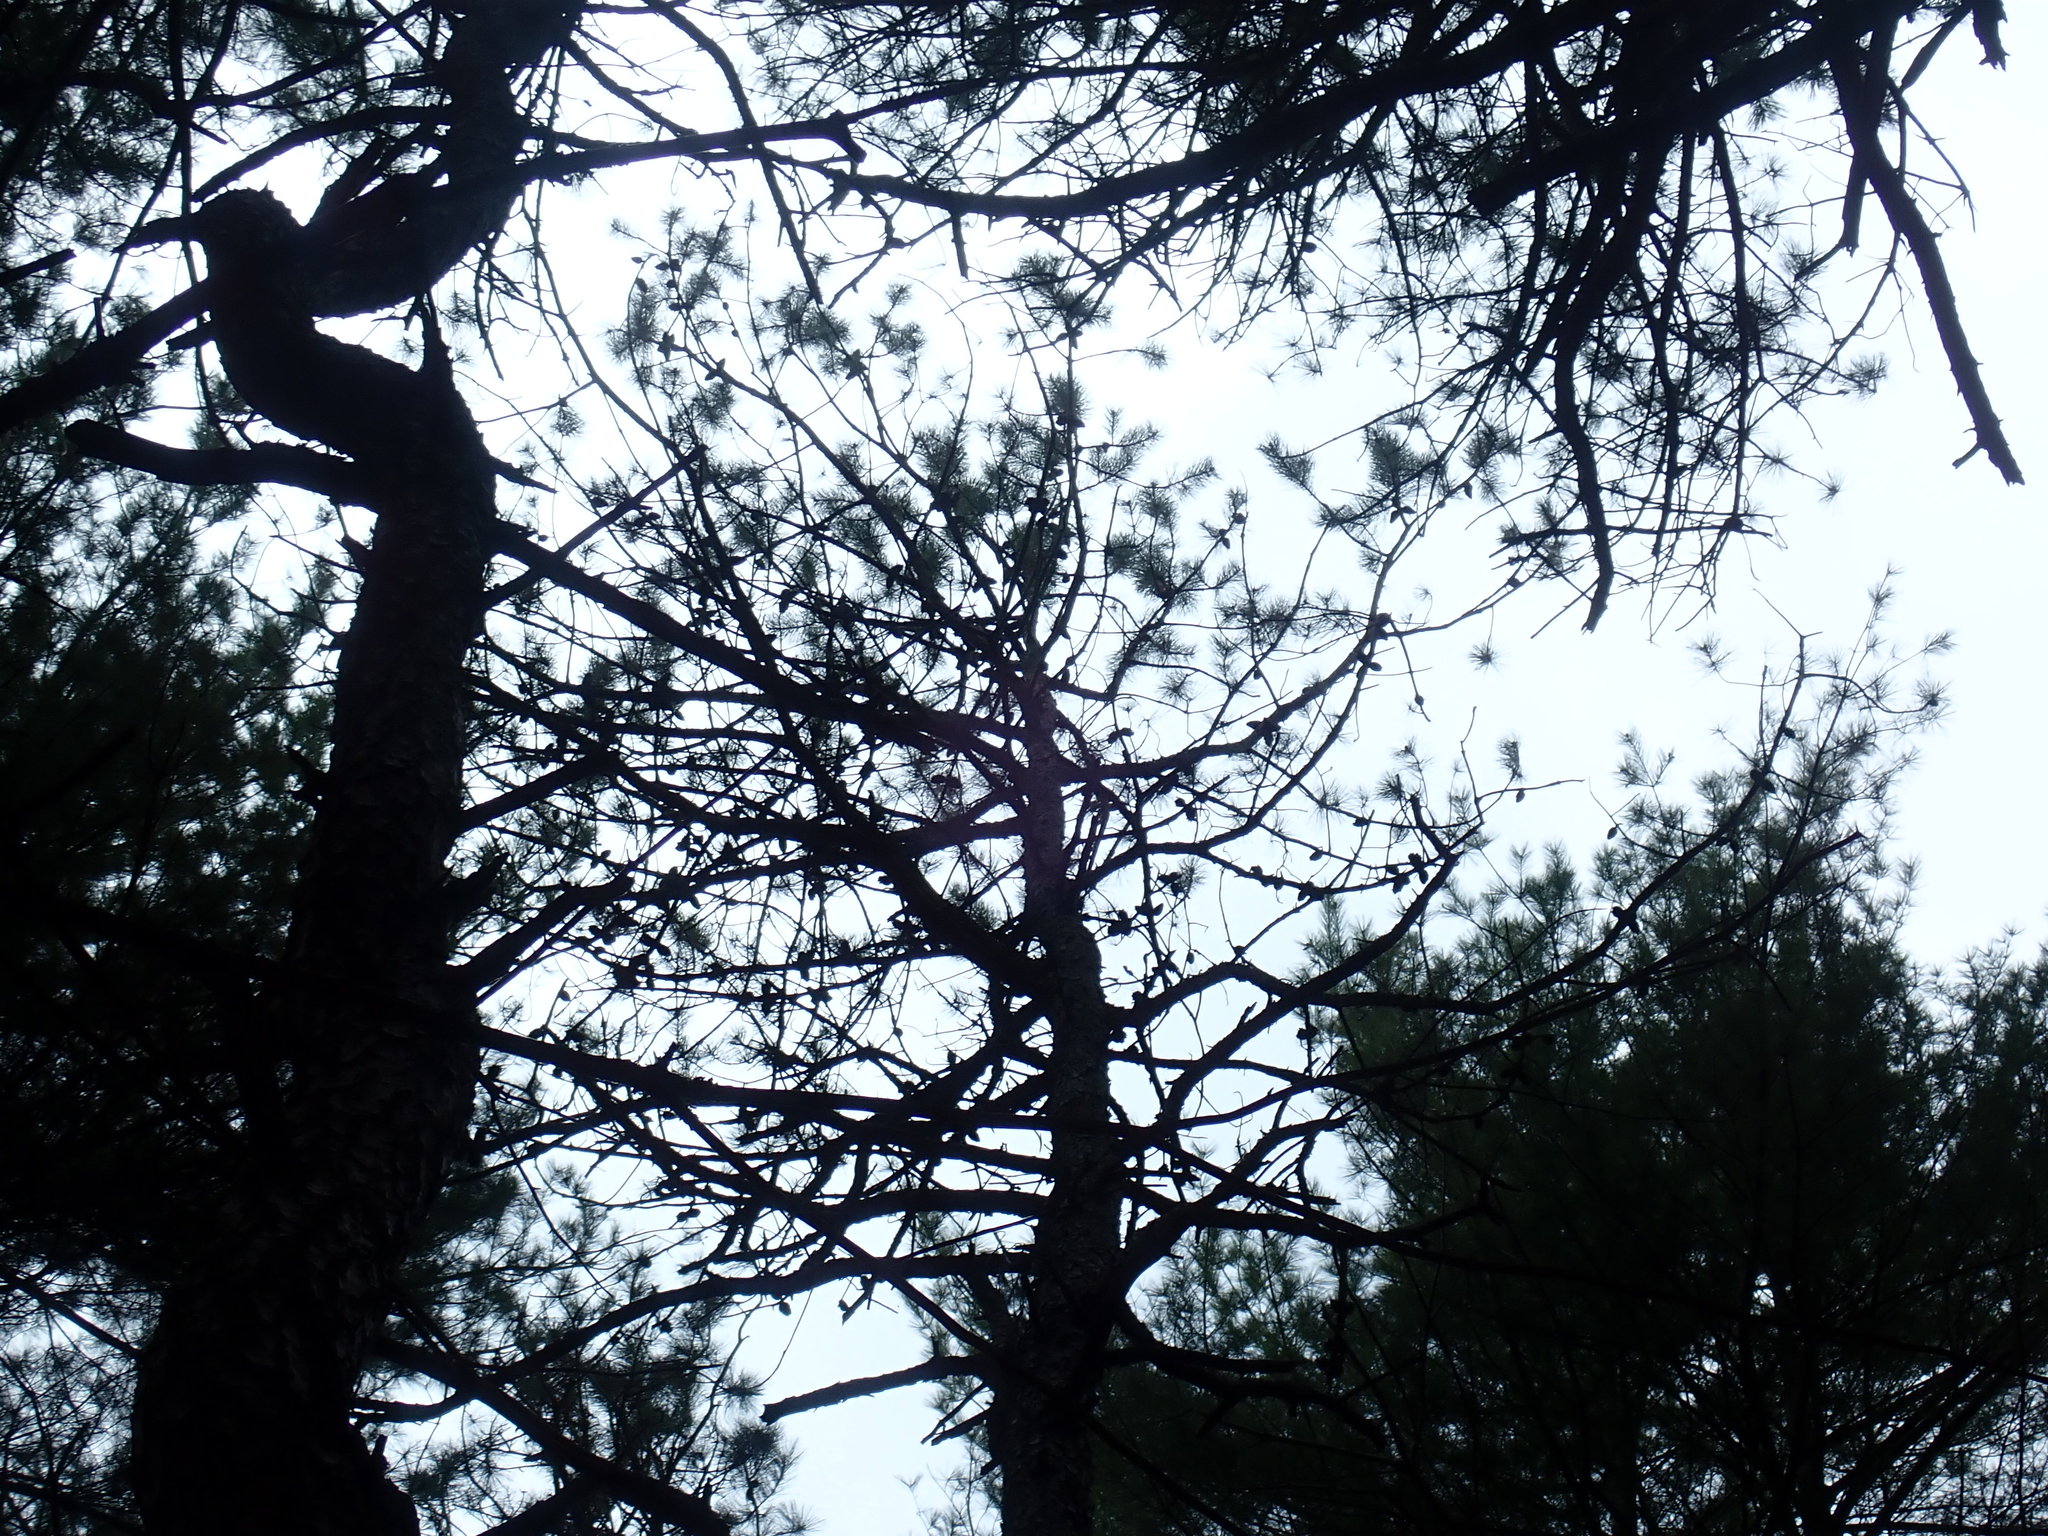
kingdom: Plantae
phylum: Tracheophyta
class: Pinopsida
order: Pinales
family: Pinaceae
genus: Pinus
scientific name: Pinus rigida
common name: Pitch pine
